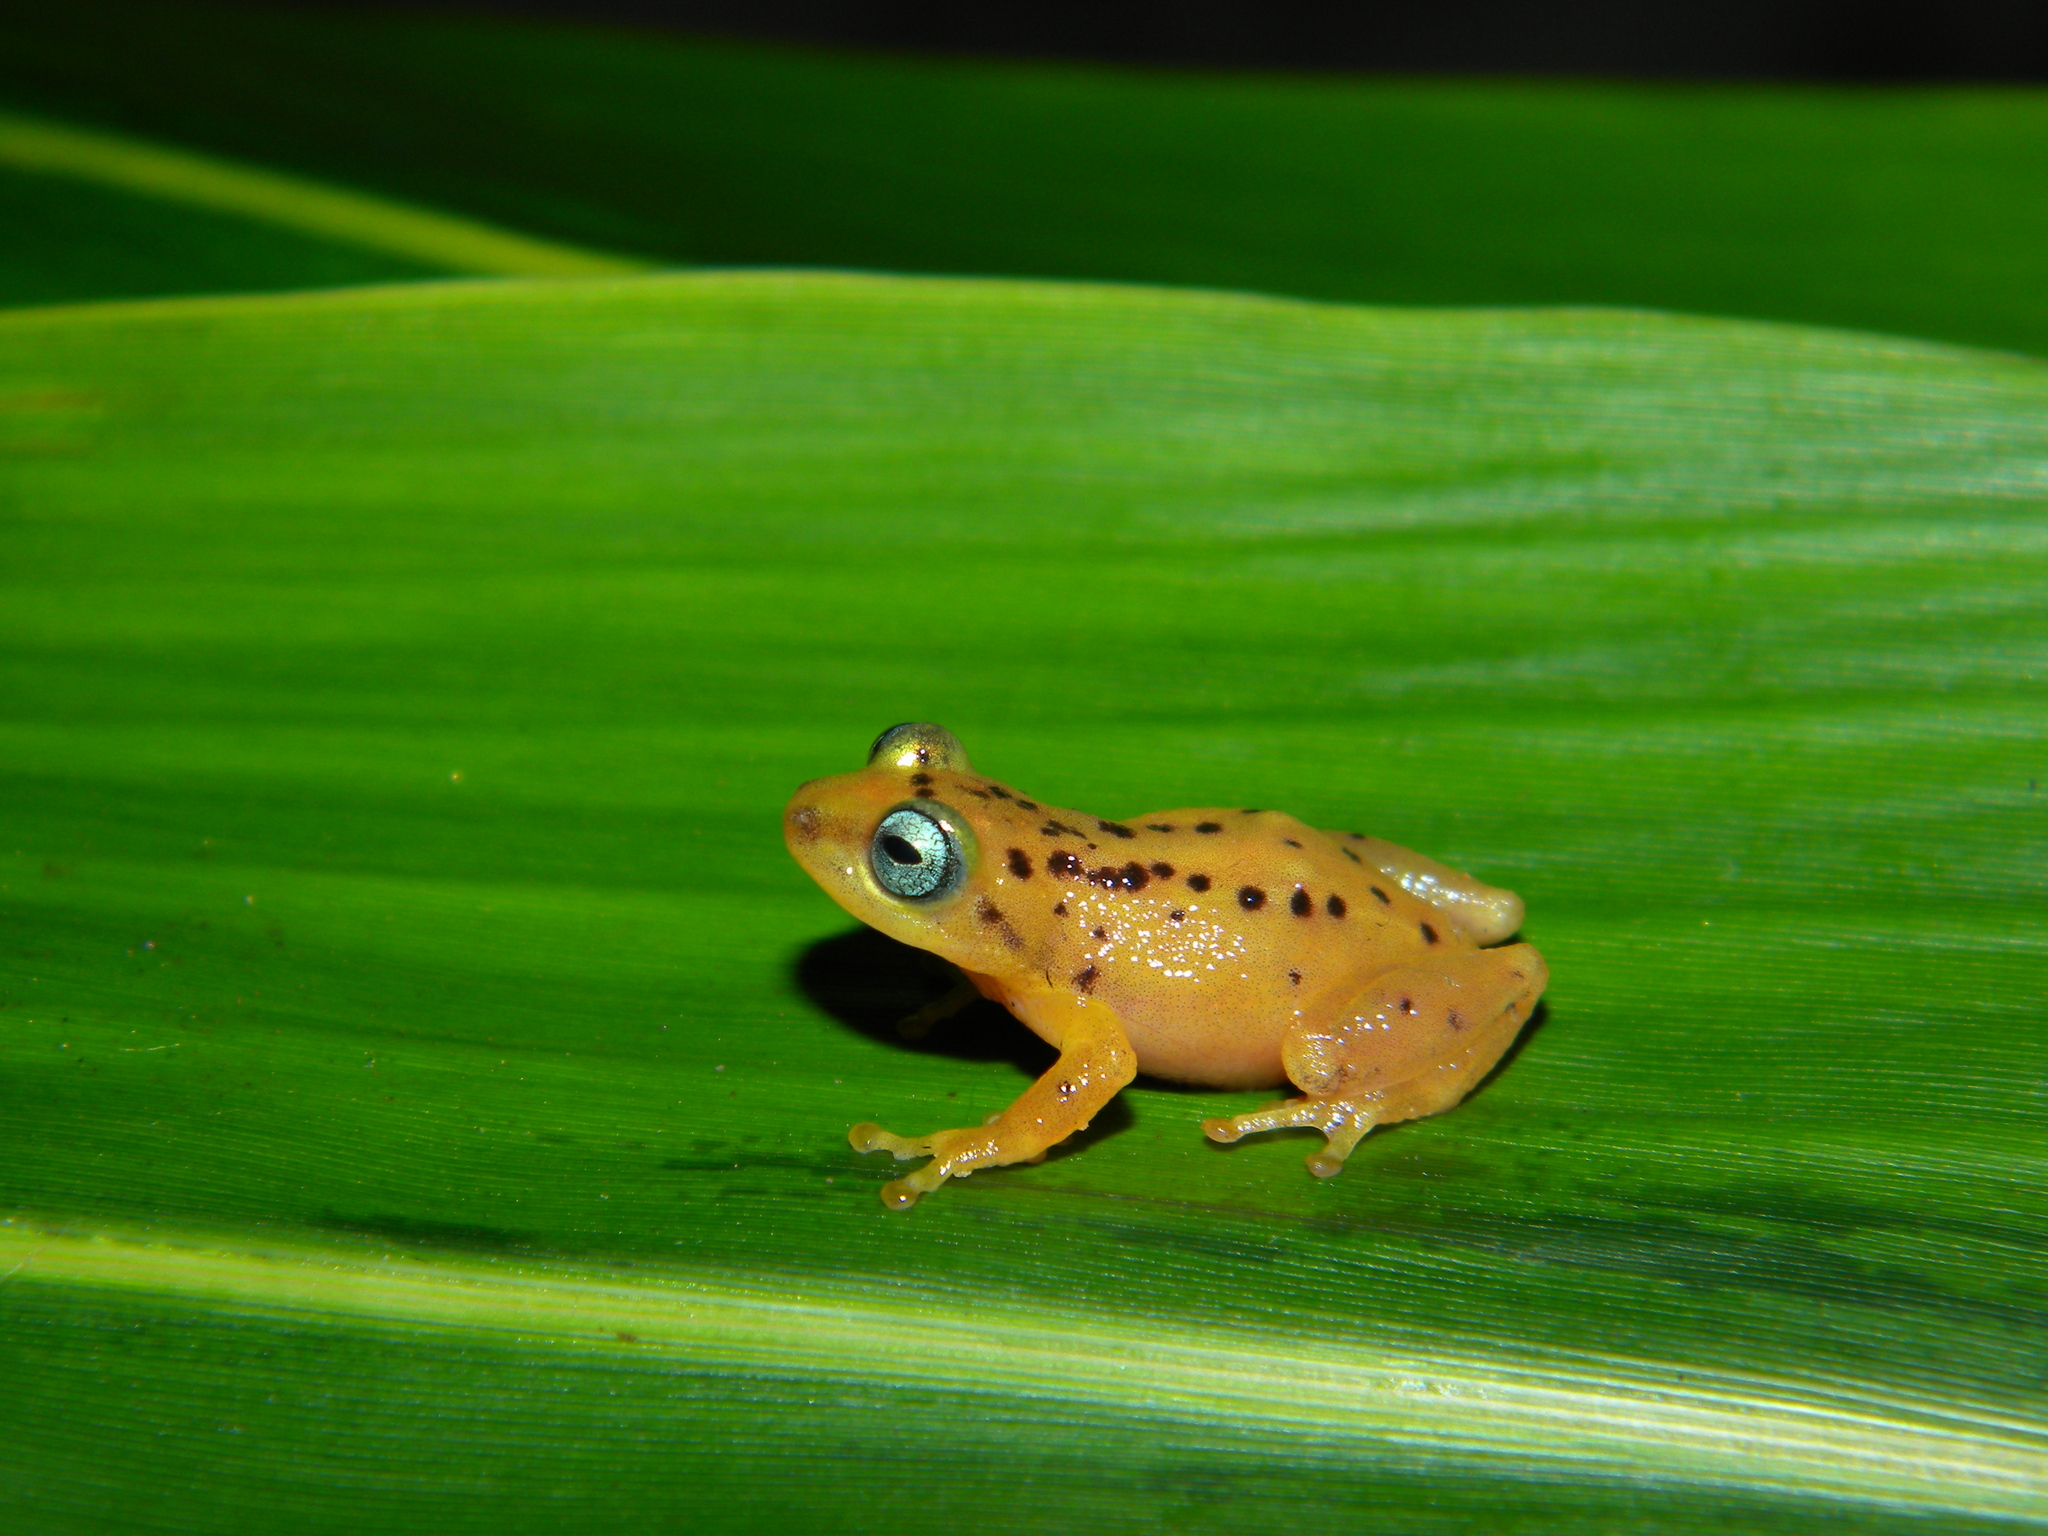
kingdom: Animalia
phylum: Chordata
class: Amphibia
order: Anura
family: Rhacophoridae
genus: Raorchestes
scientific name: Raorchestes manohari
